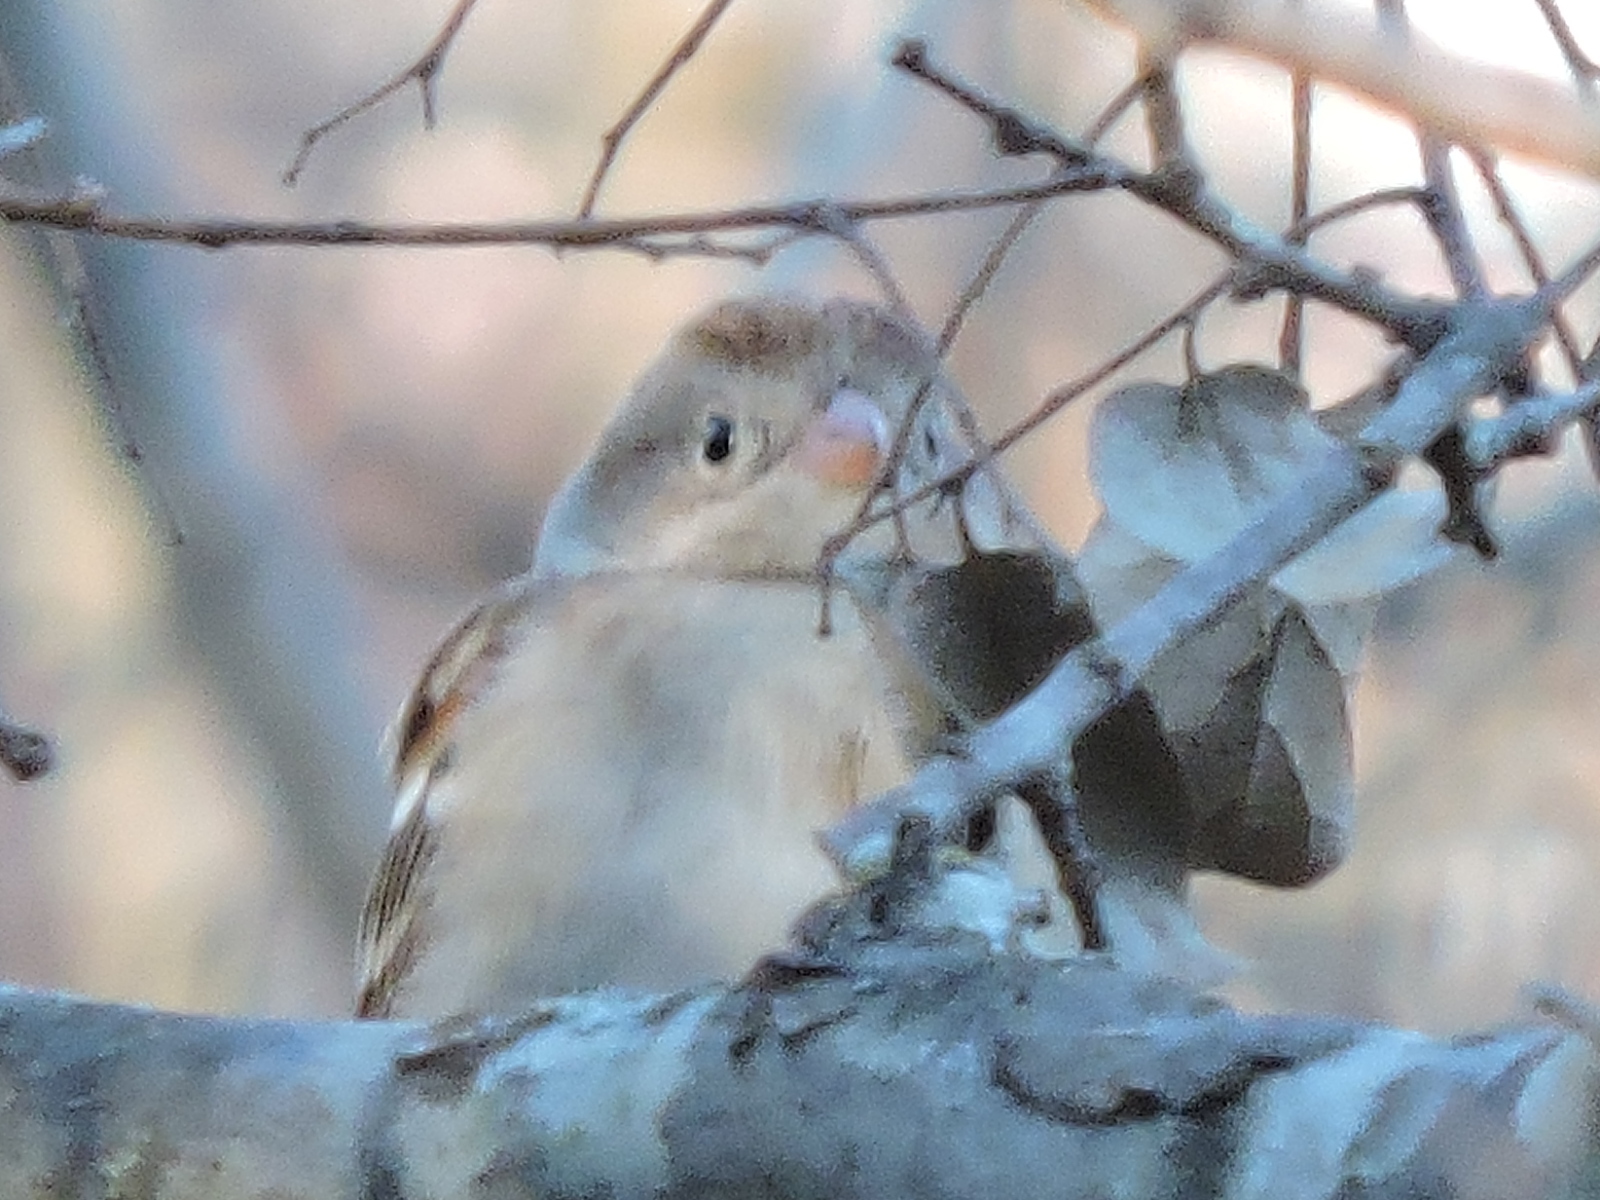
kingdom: Animalia
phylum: Chordata
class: Aves
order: Passeriformes
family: Passerellidae
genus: Spizella
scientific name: Spizella pusilla
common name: Field sparrow
